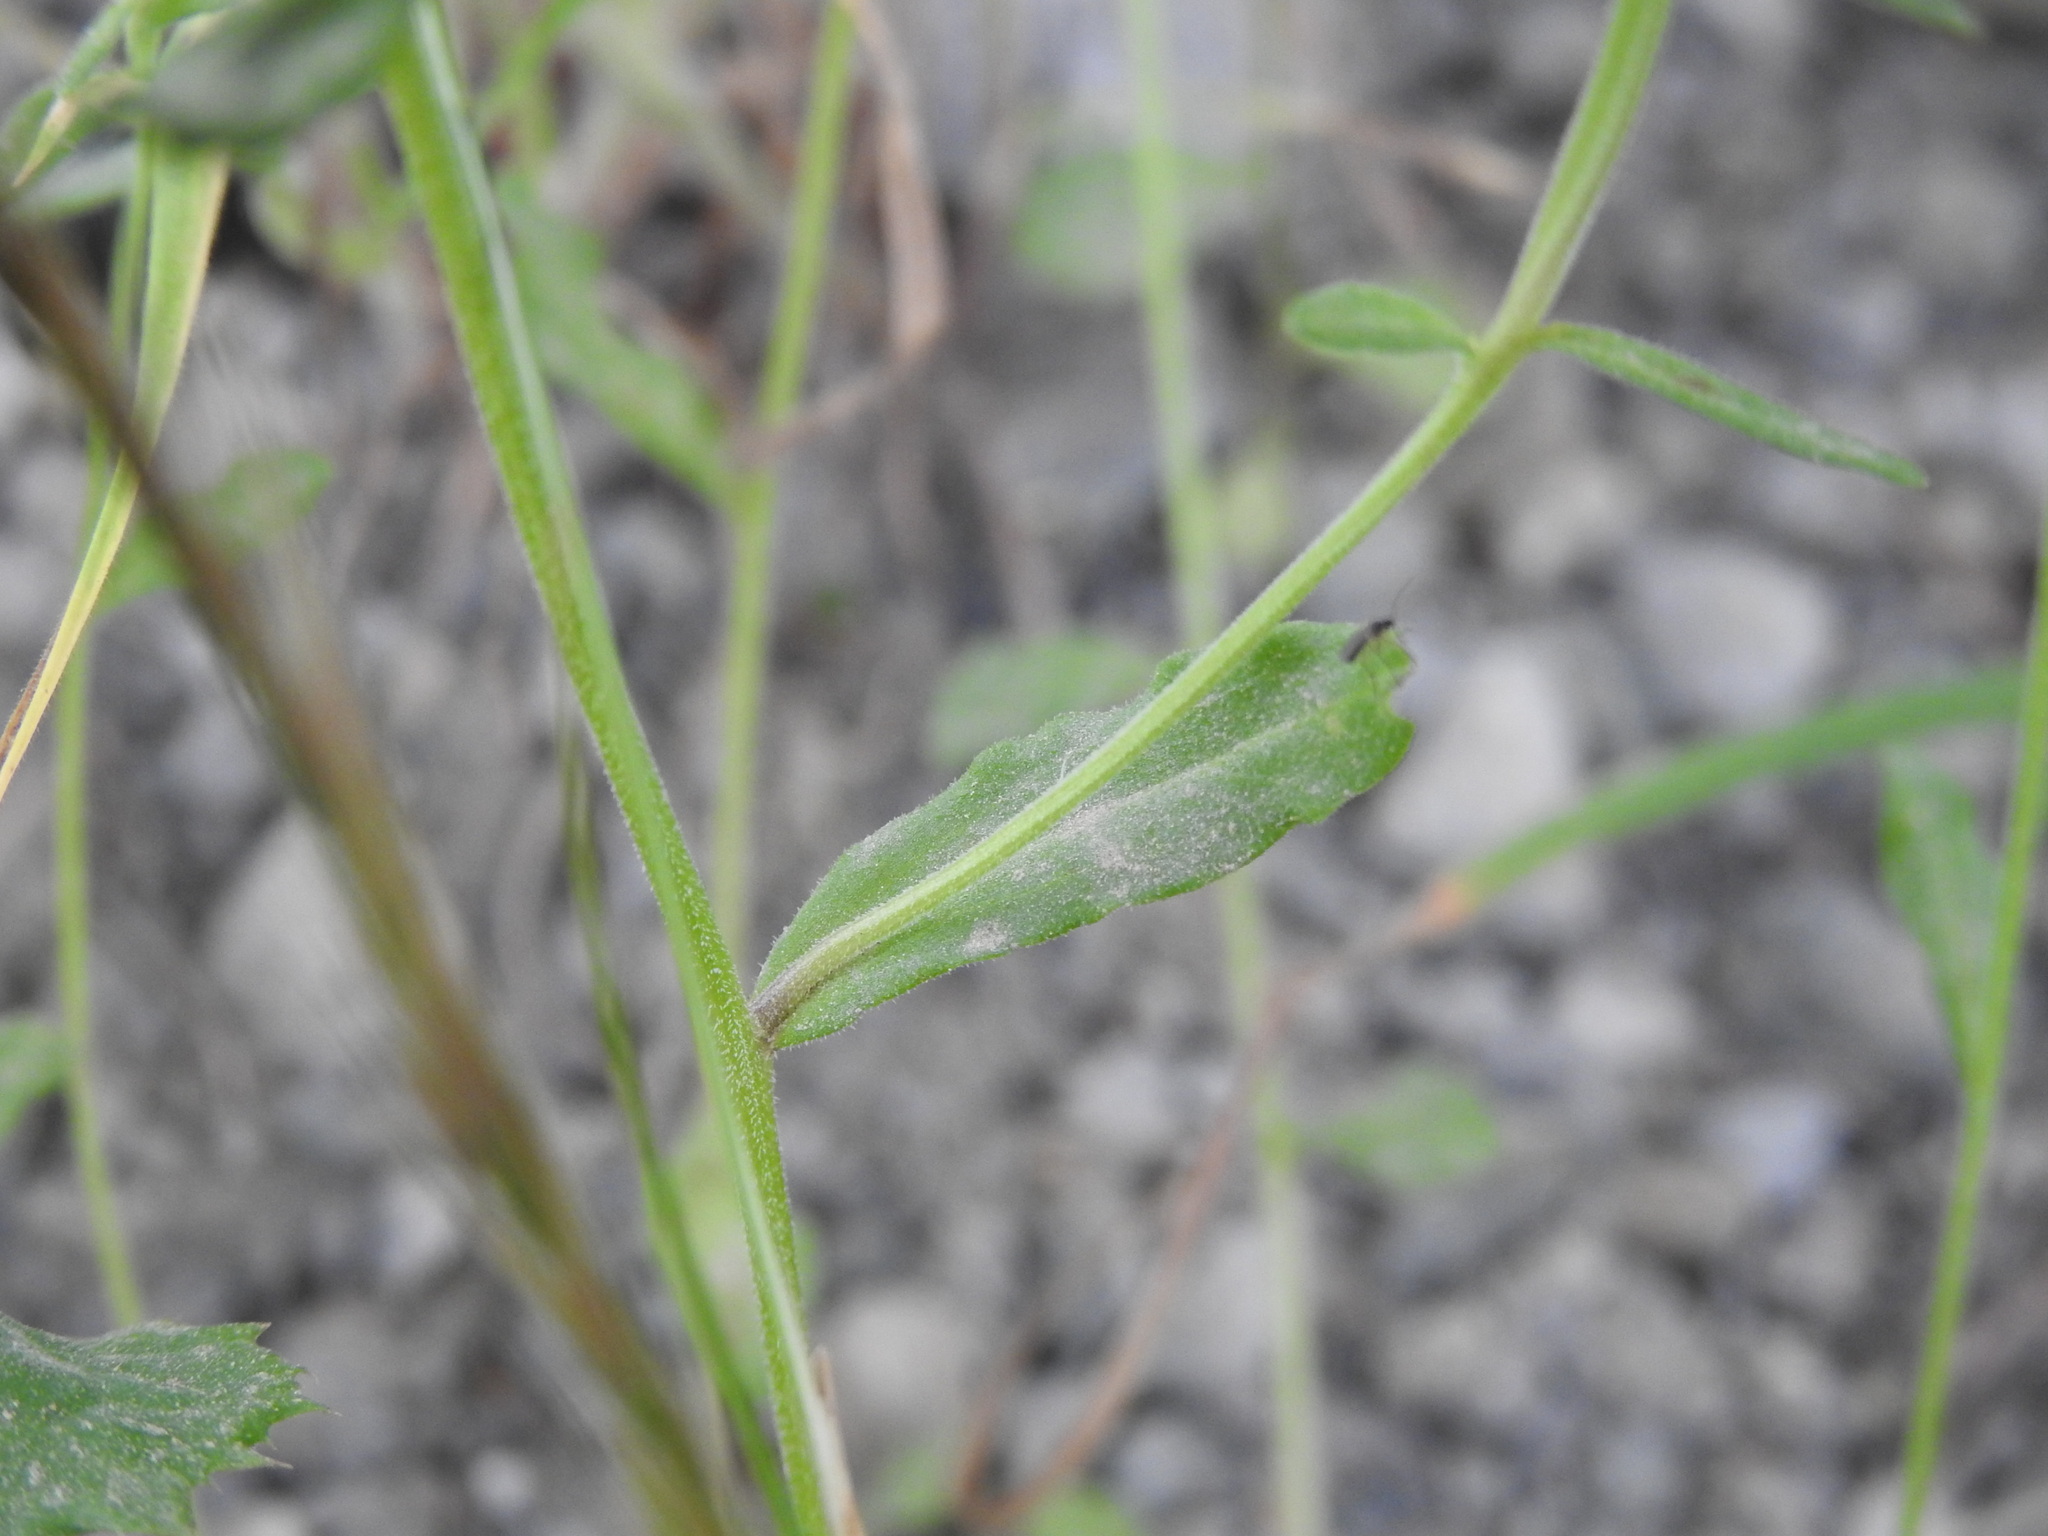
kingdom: Plantae
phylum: Tracheophyta
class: Magnoliopsida
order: Asterales
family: Campanulaceae
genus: Legousia
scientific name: Legousia pentagonia
